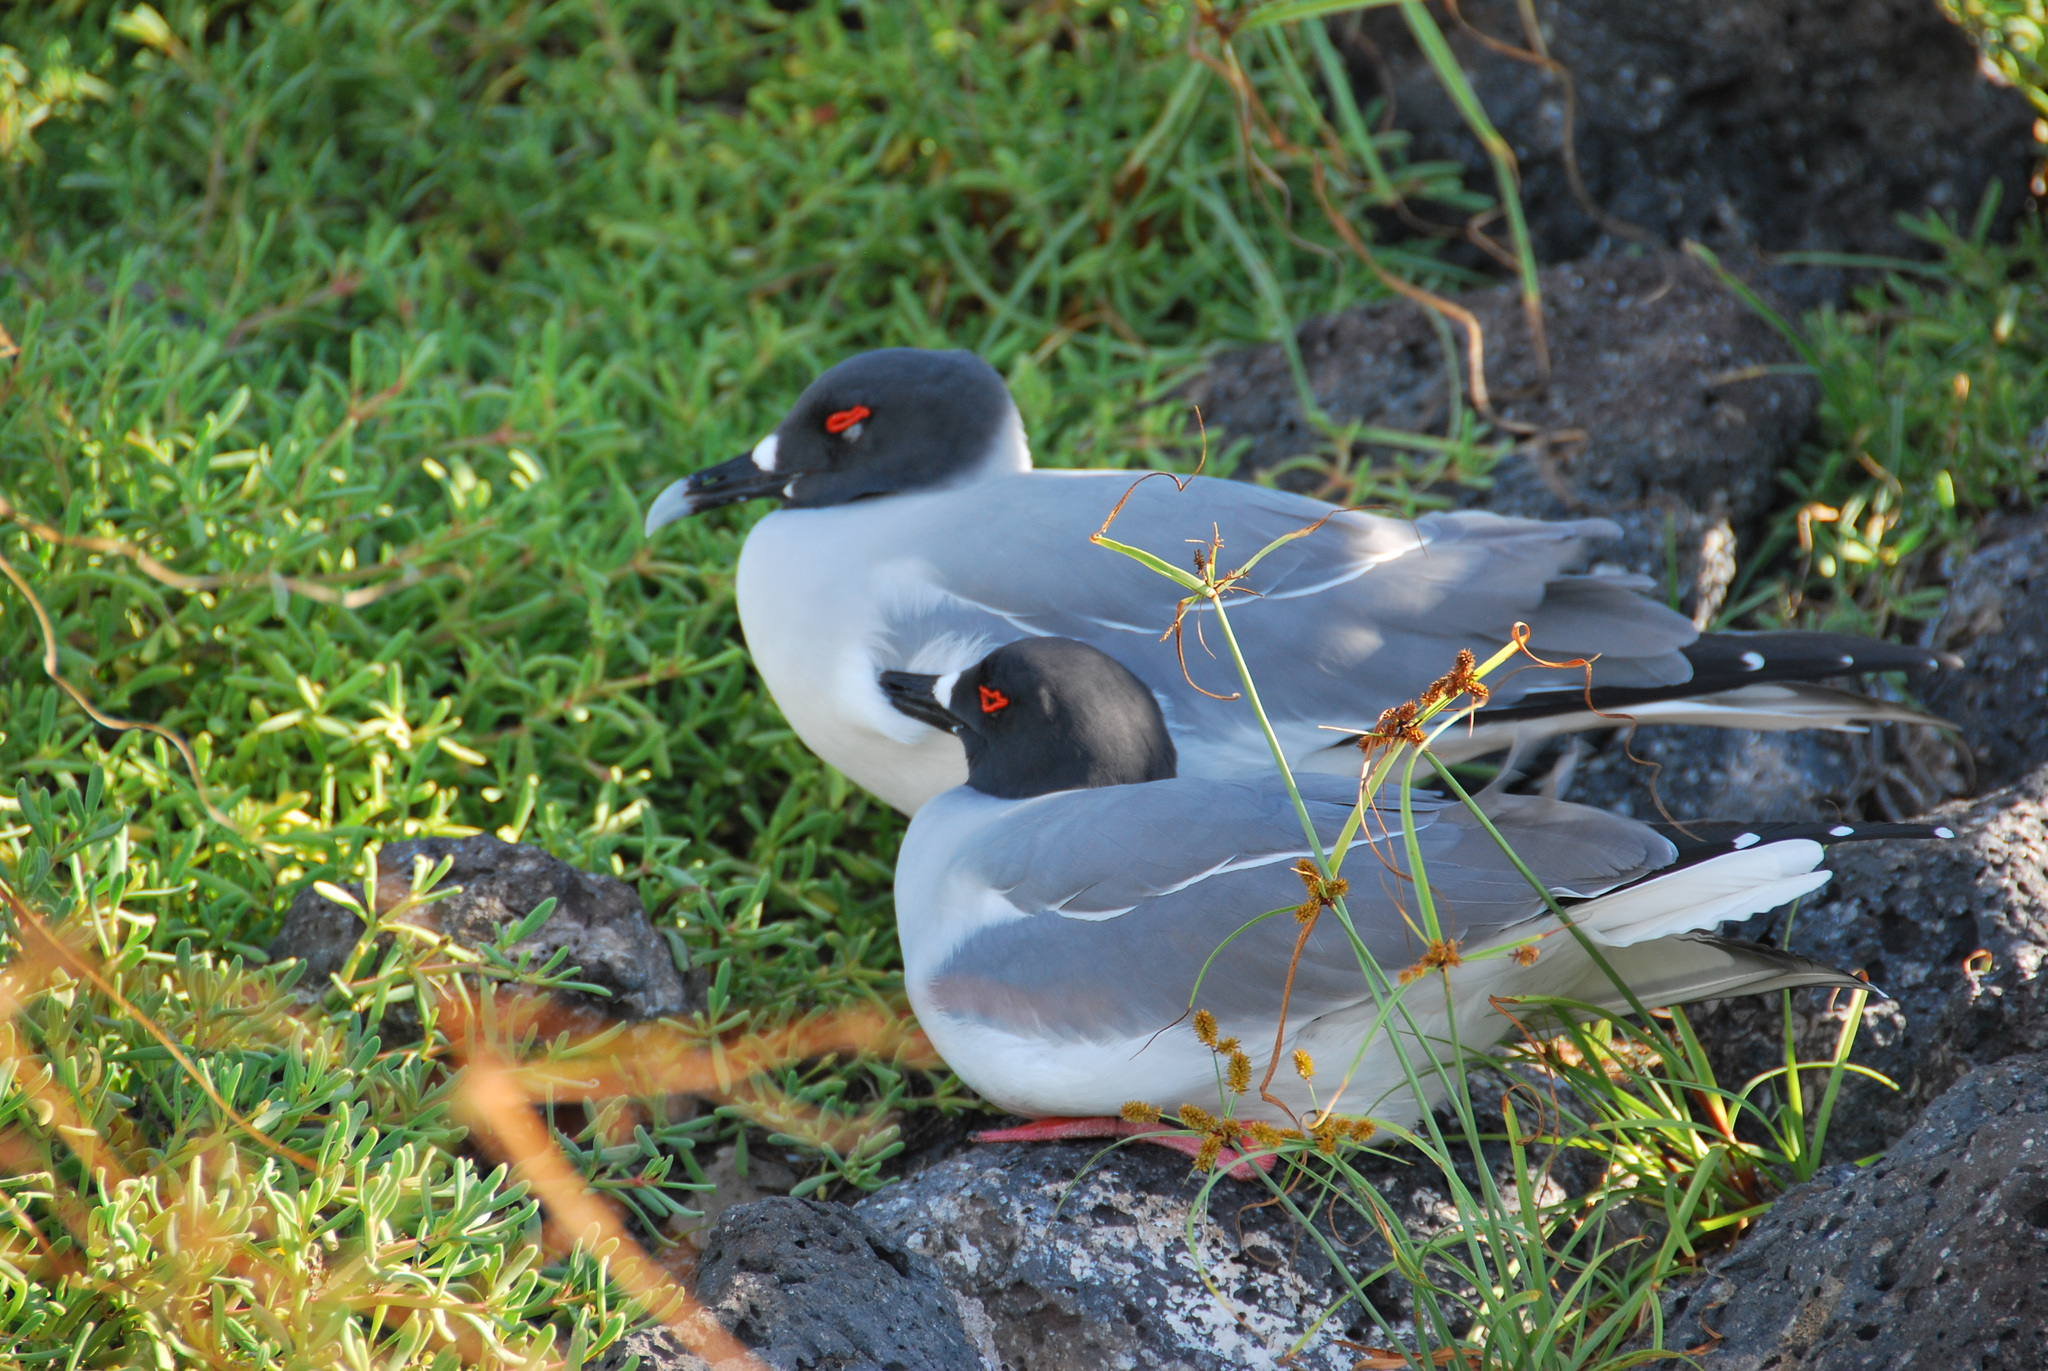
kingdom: Animalia
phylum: Chordata
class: Aves
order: Charadriiformes
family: Laridae
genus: Creagrus
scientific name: Creagrus furcatus
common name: Swallow-tailed gull
